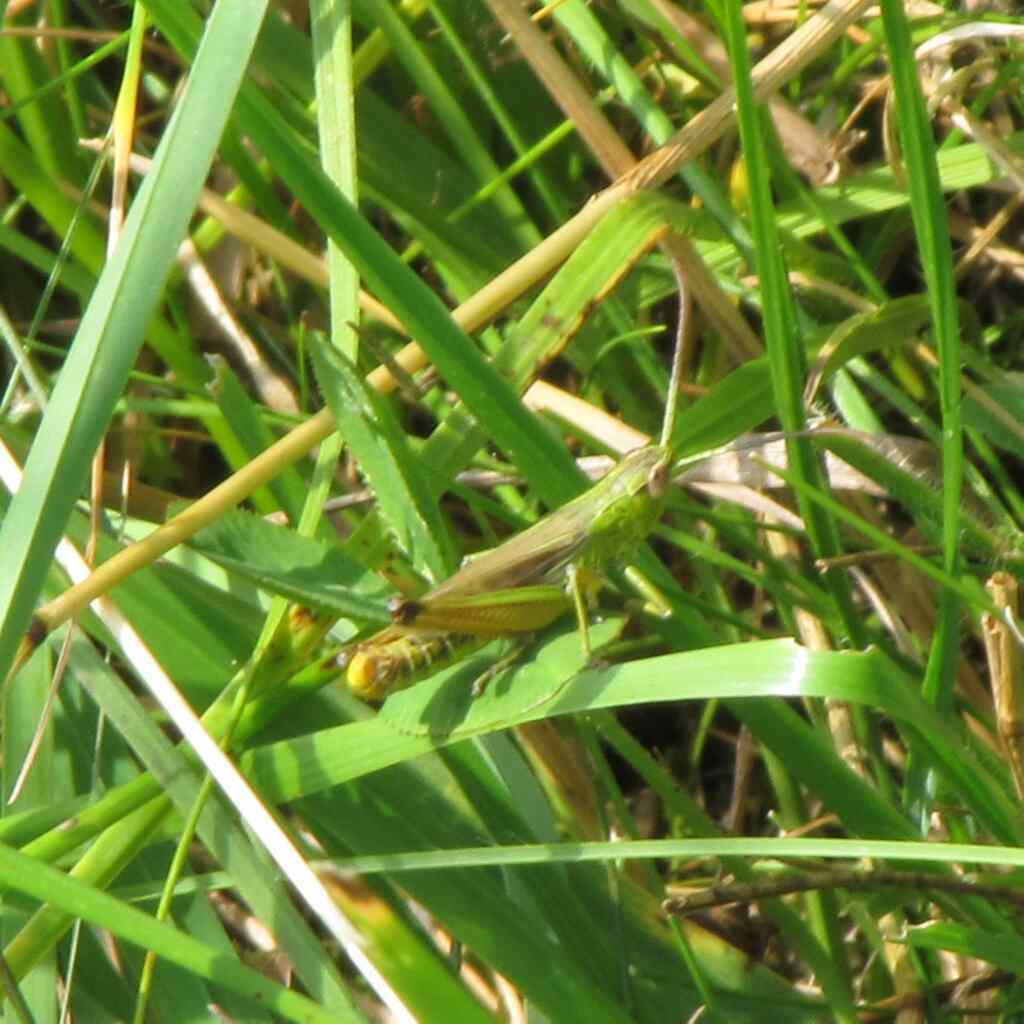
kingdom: Animalia
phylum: Arthropoda
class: Insecta
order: Orthoptera
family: Acrididae
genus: Pseudochorthippus
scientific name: Pseudochorthippus parallelus
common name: Meadow grasshopper
